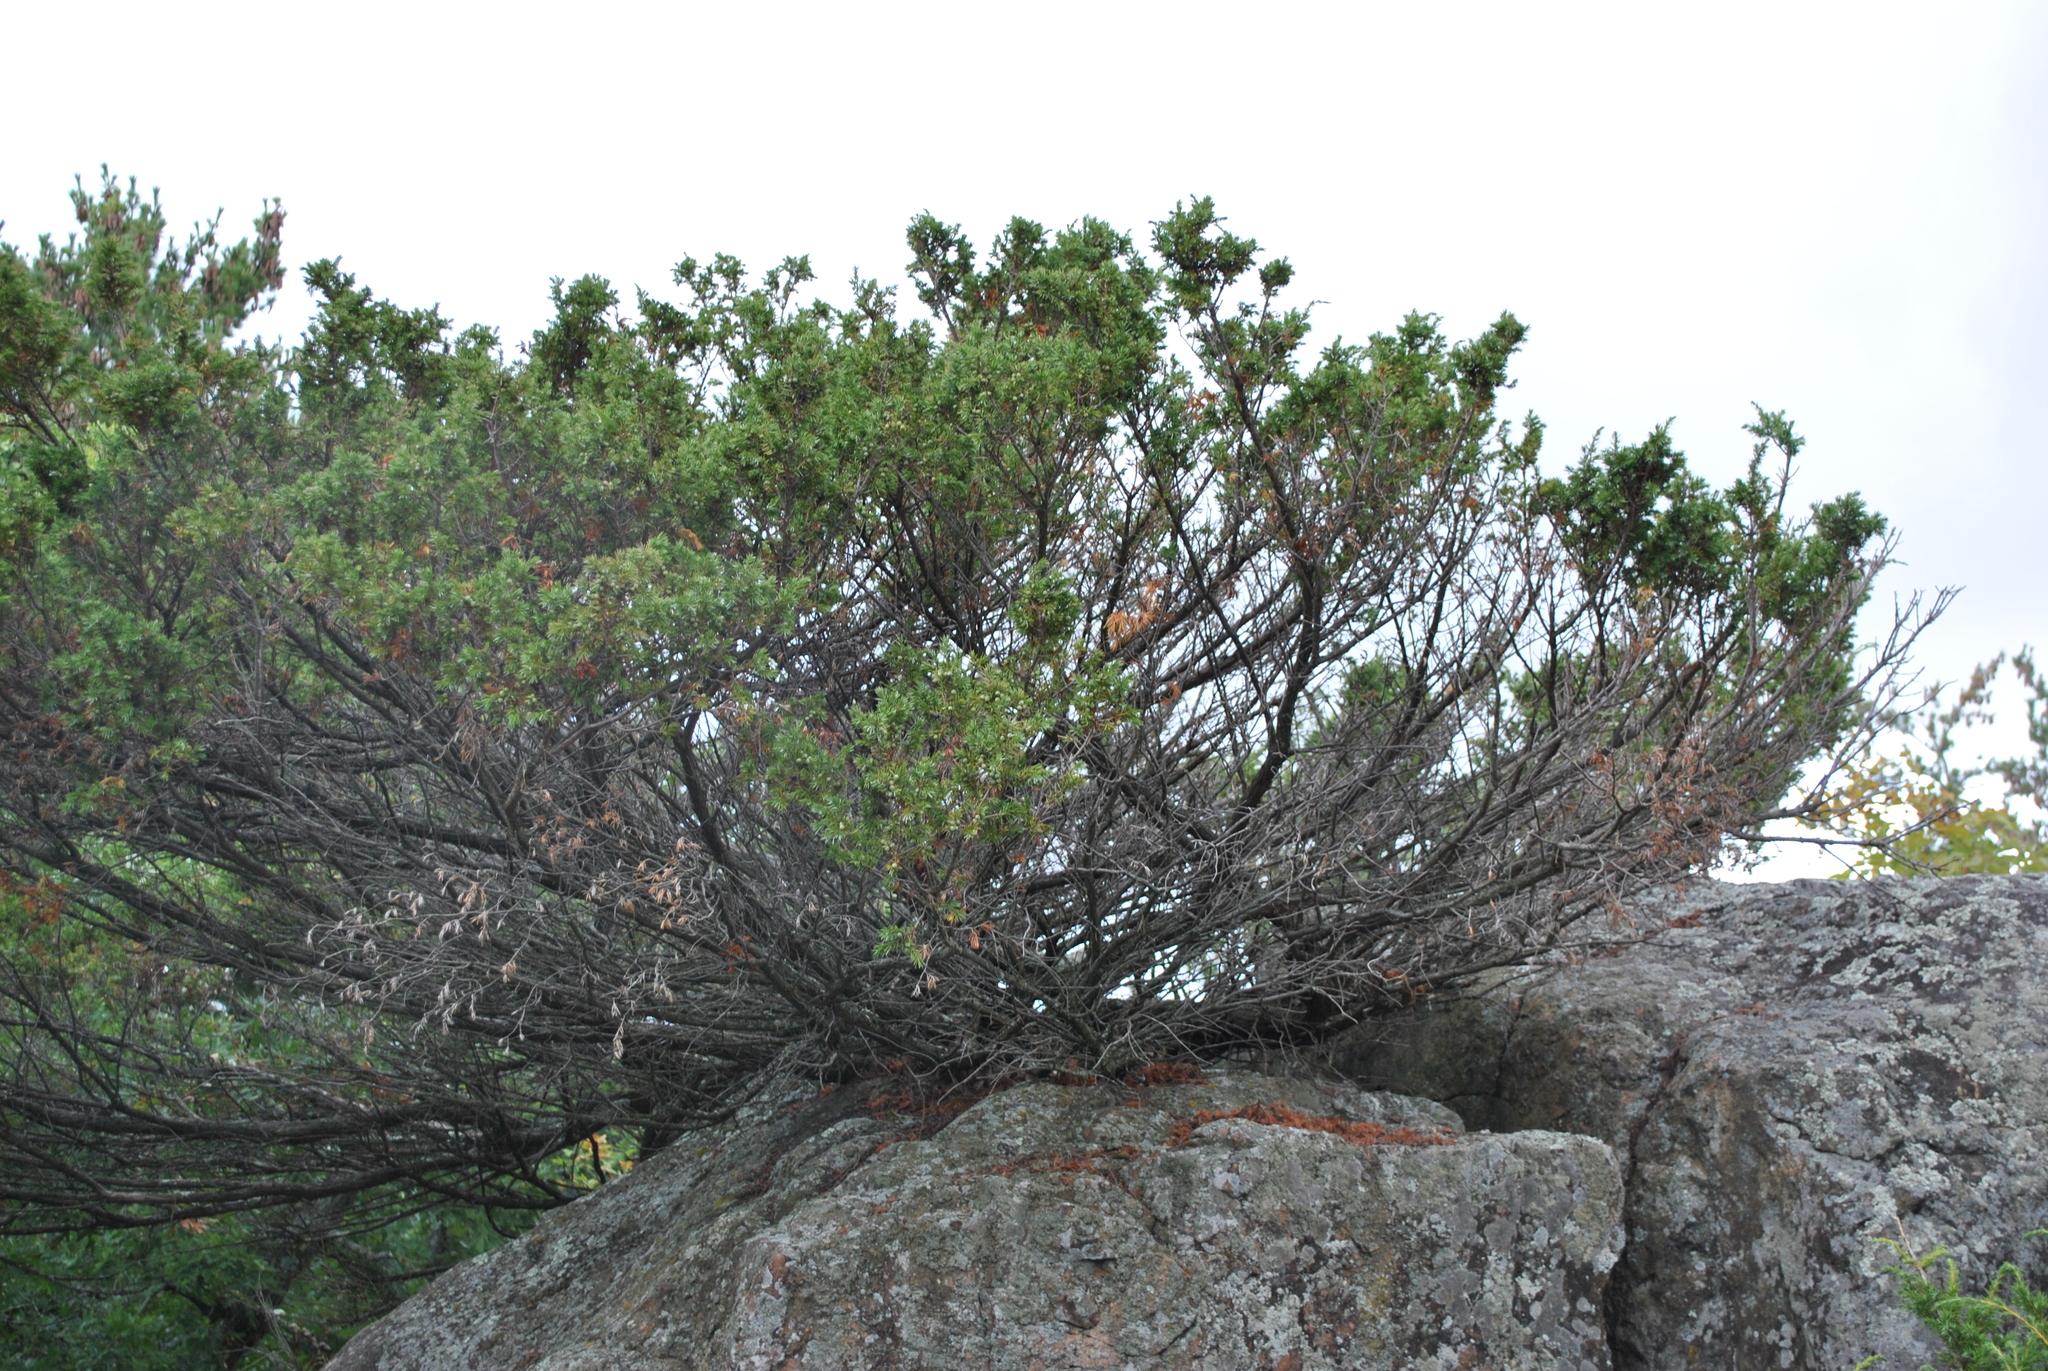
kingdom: Plantae
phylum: Tracheophyta
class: Pinopsida
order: Pinales
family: Cupressaceae
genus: Juniperus
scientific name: Juniperus communis
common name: Common juniper
